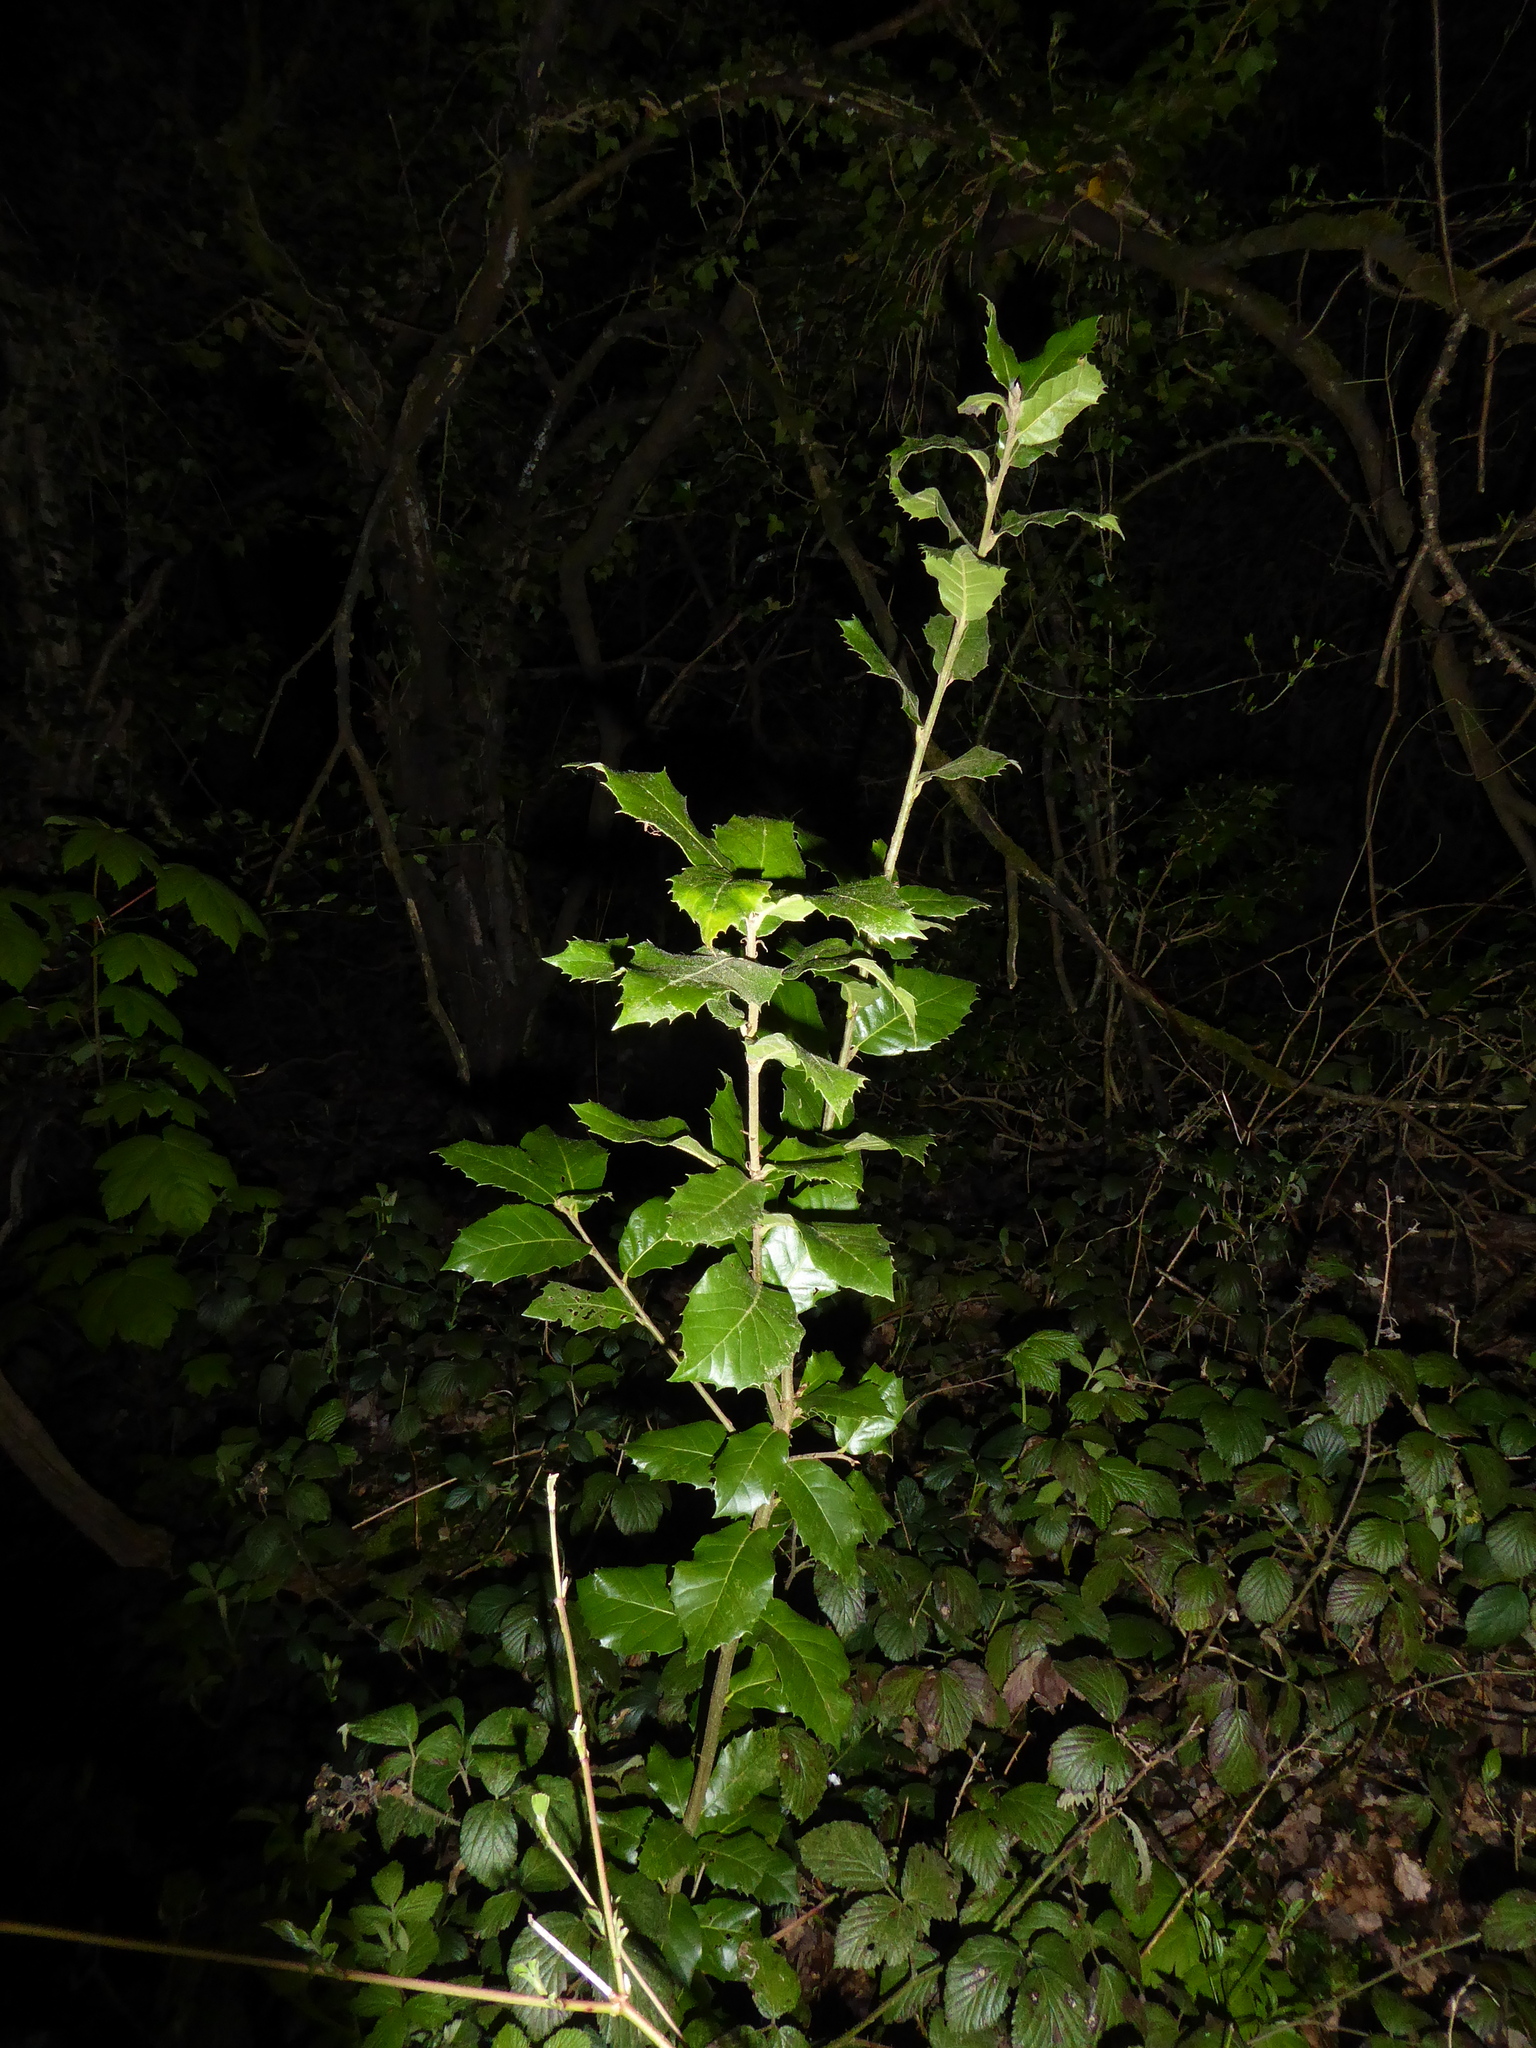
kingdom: Plantae
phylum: Tracheophyta
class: Magnoliopsida
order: Fagales
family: Fagaceae
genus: Quercus
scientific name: Quercus ilex
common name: Evergreen oak
